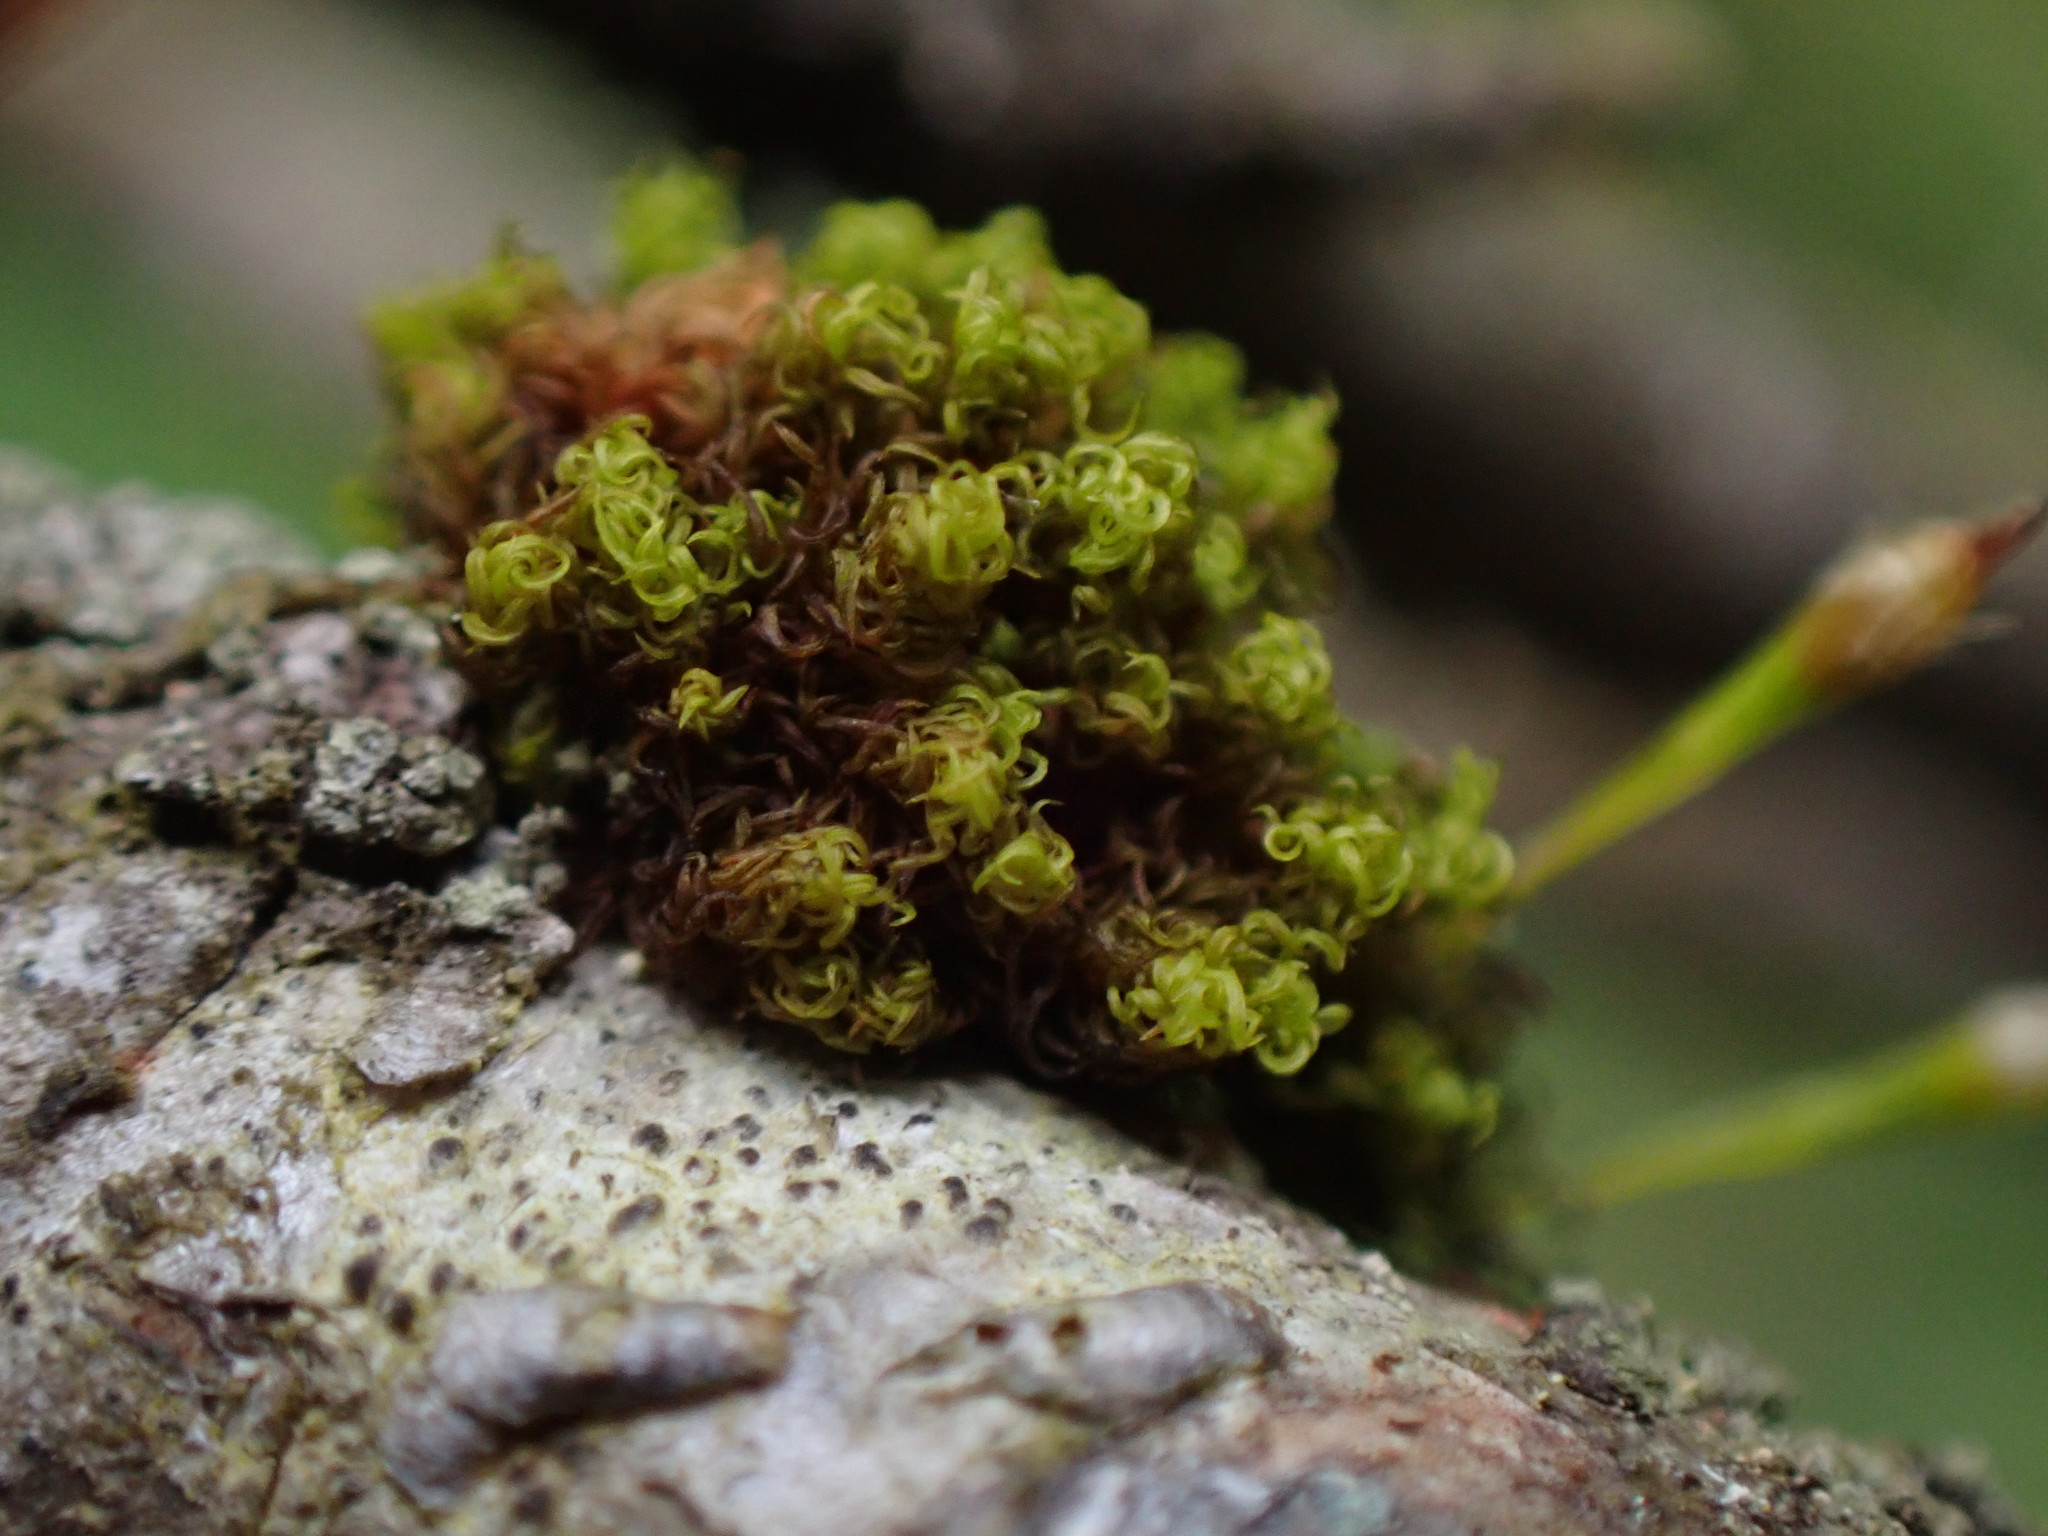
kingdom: Plantae
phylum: Bryophyta
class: Bryopsida
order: Orthotrichales
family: Orthotrichaceae
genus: Ulota
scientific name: Ulota obtusiuscula
